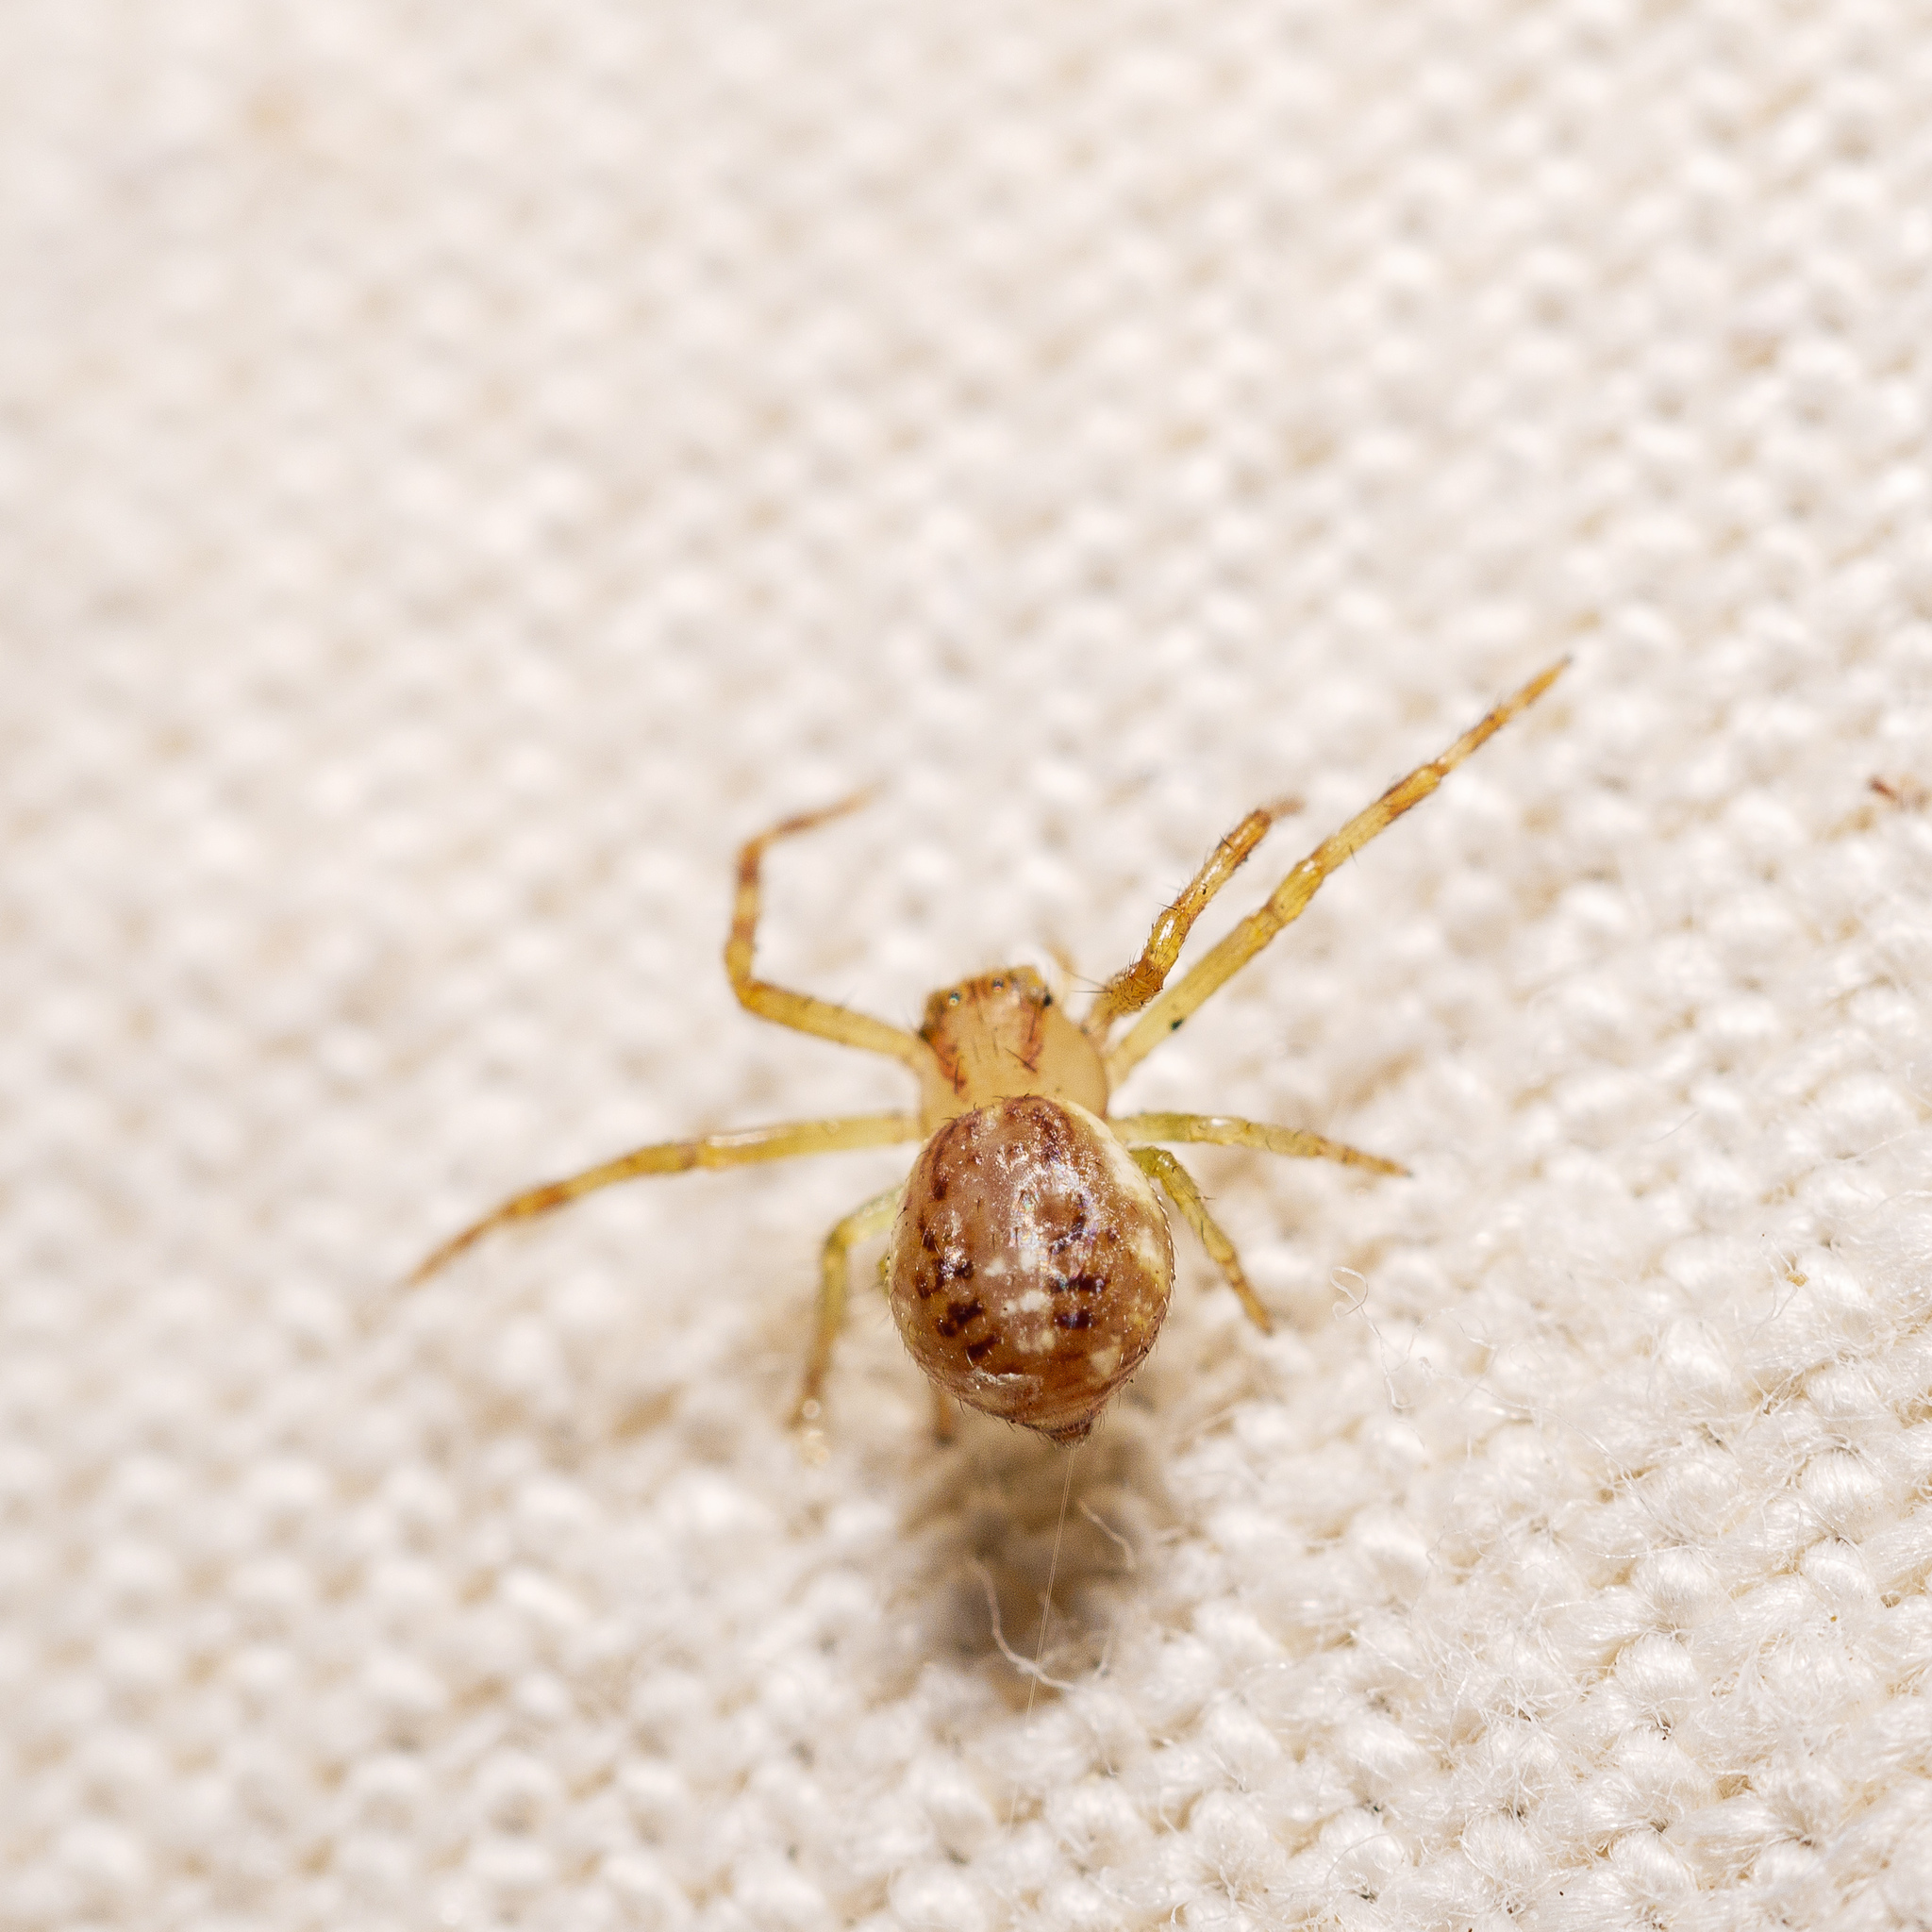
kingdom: Animalia
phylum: Arthropoda
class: Arachnida
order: Araneae
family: Thomisidae
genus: Diaea
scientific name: Diaea ambara
